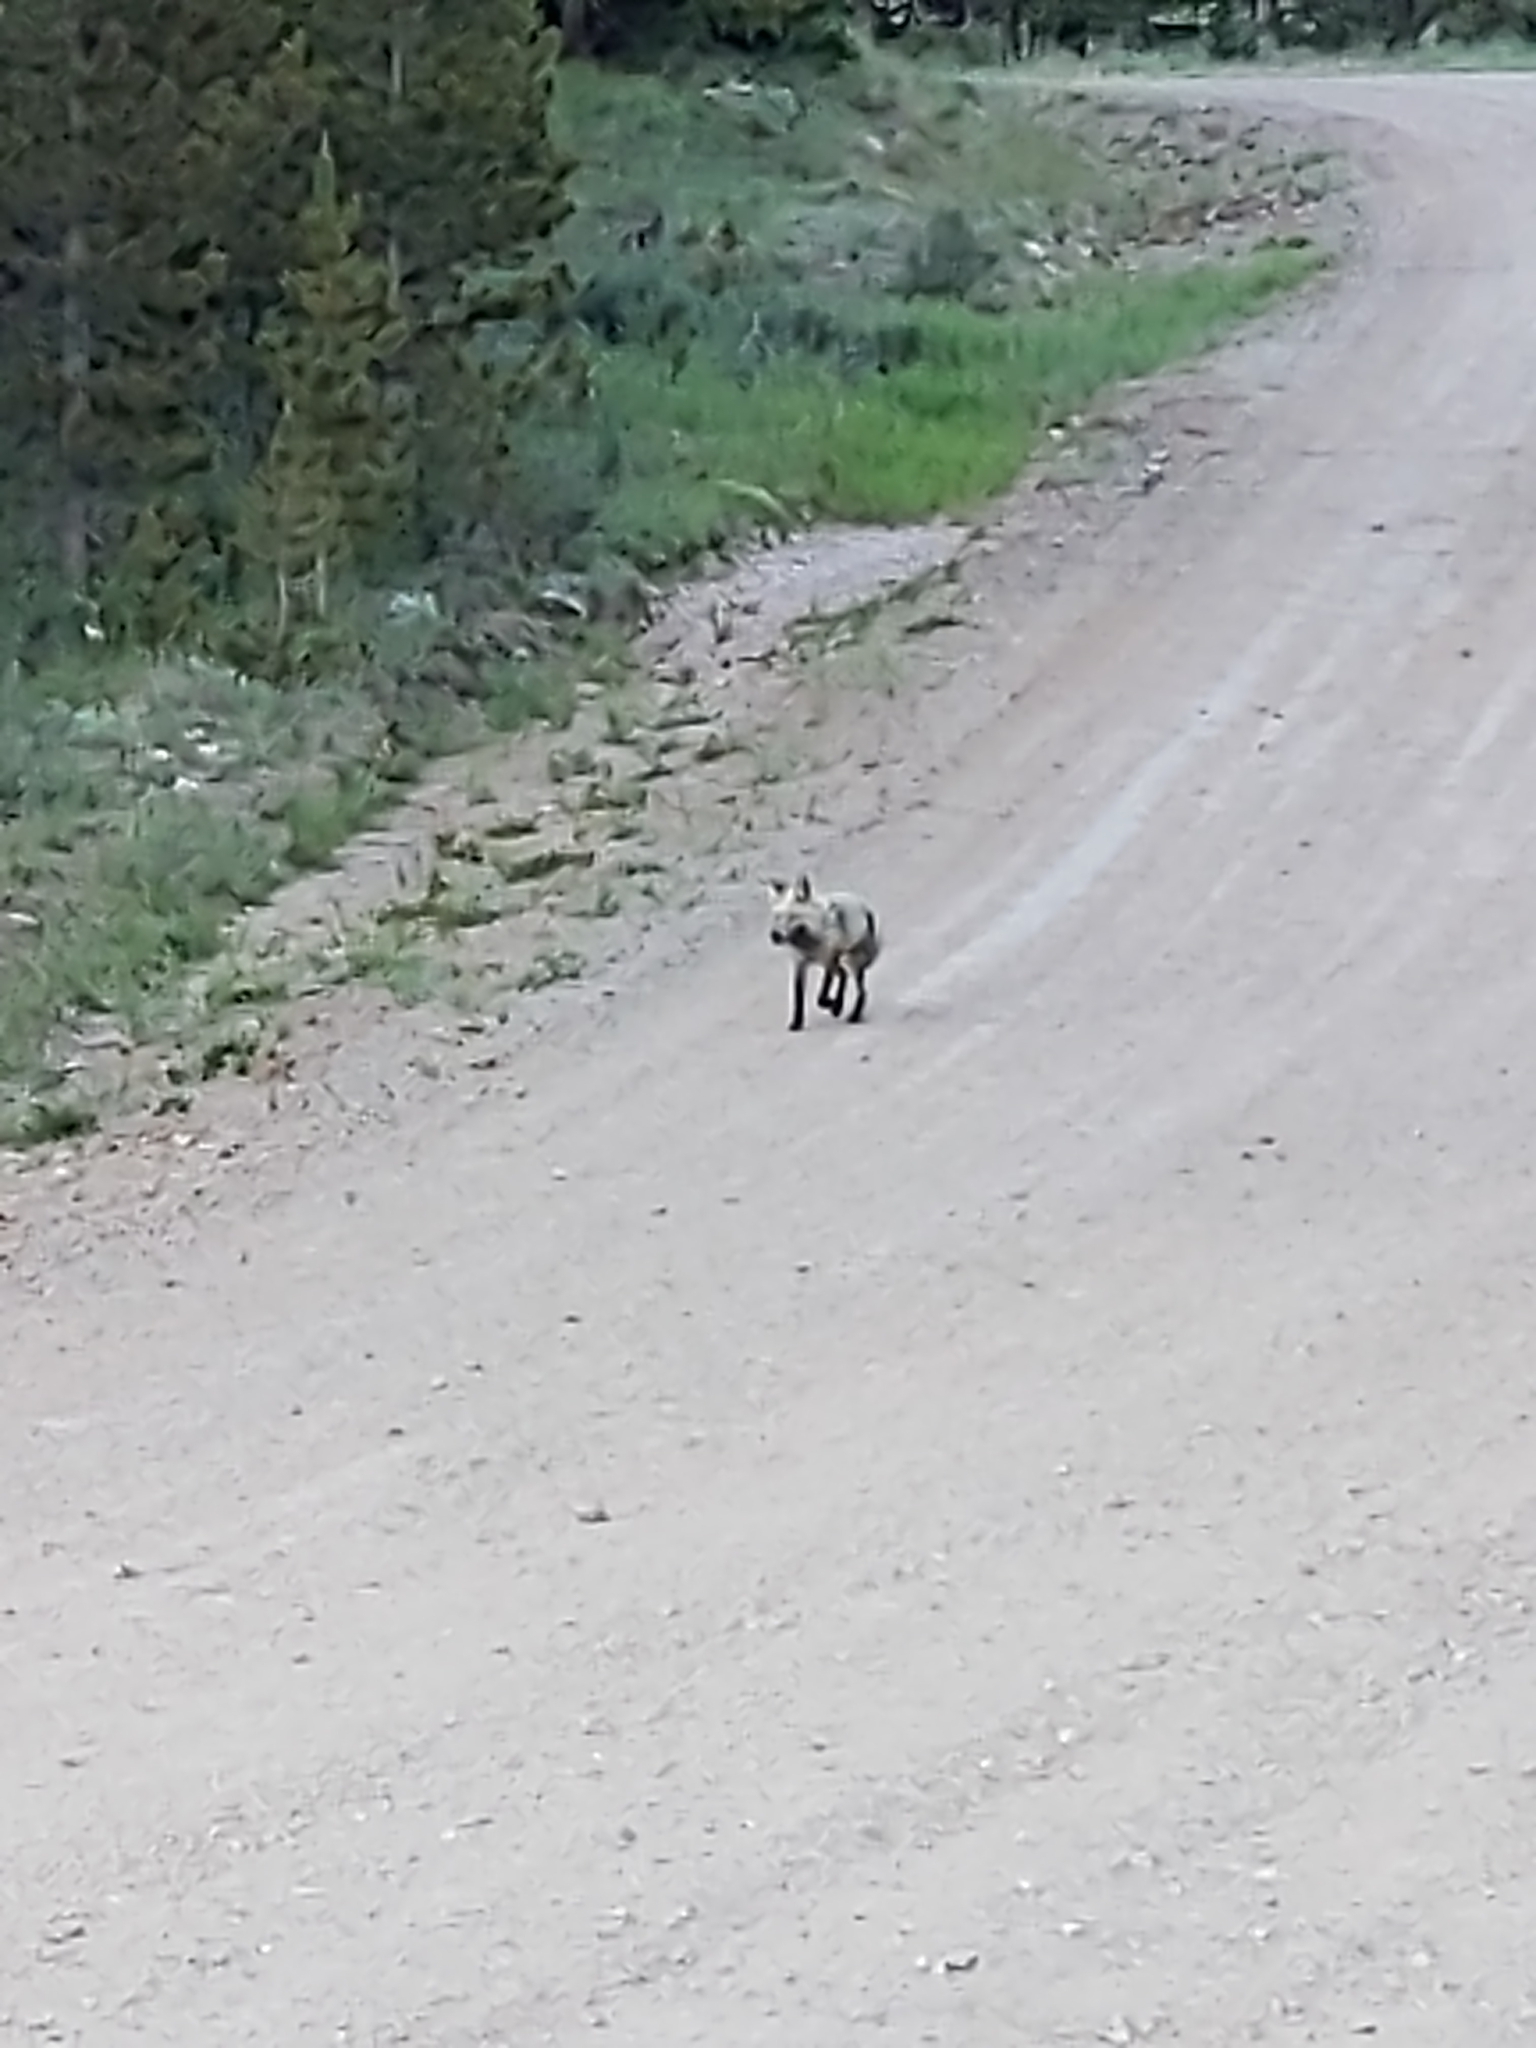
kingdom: Animalia
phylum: Chordata
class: Mammalia
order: Carnivora
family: Canidae
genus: Vulpes
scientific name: Vulpes vulpes
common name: Red fox
